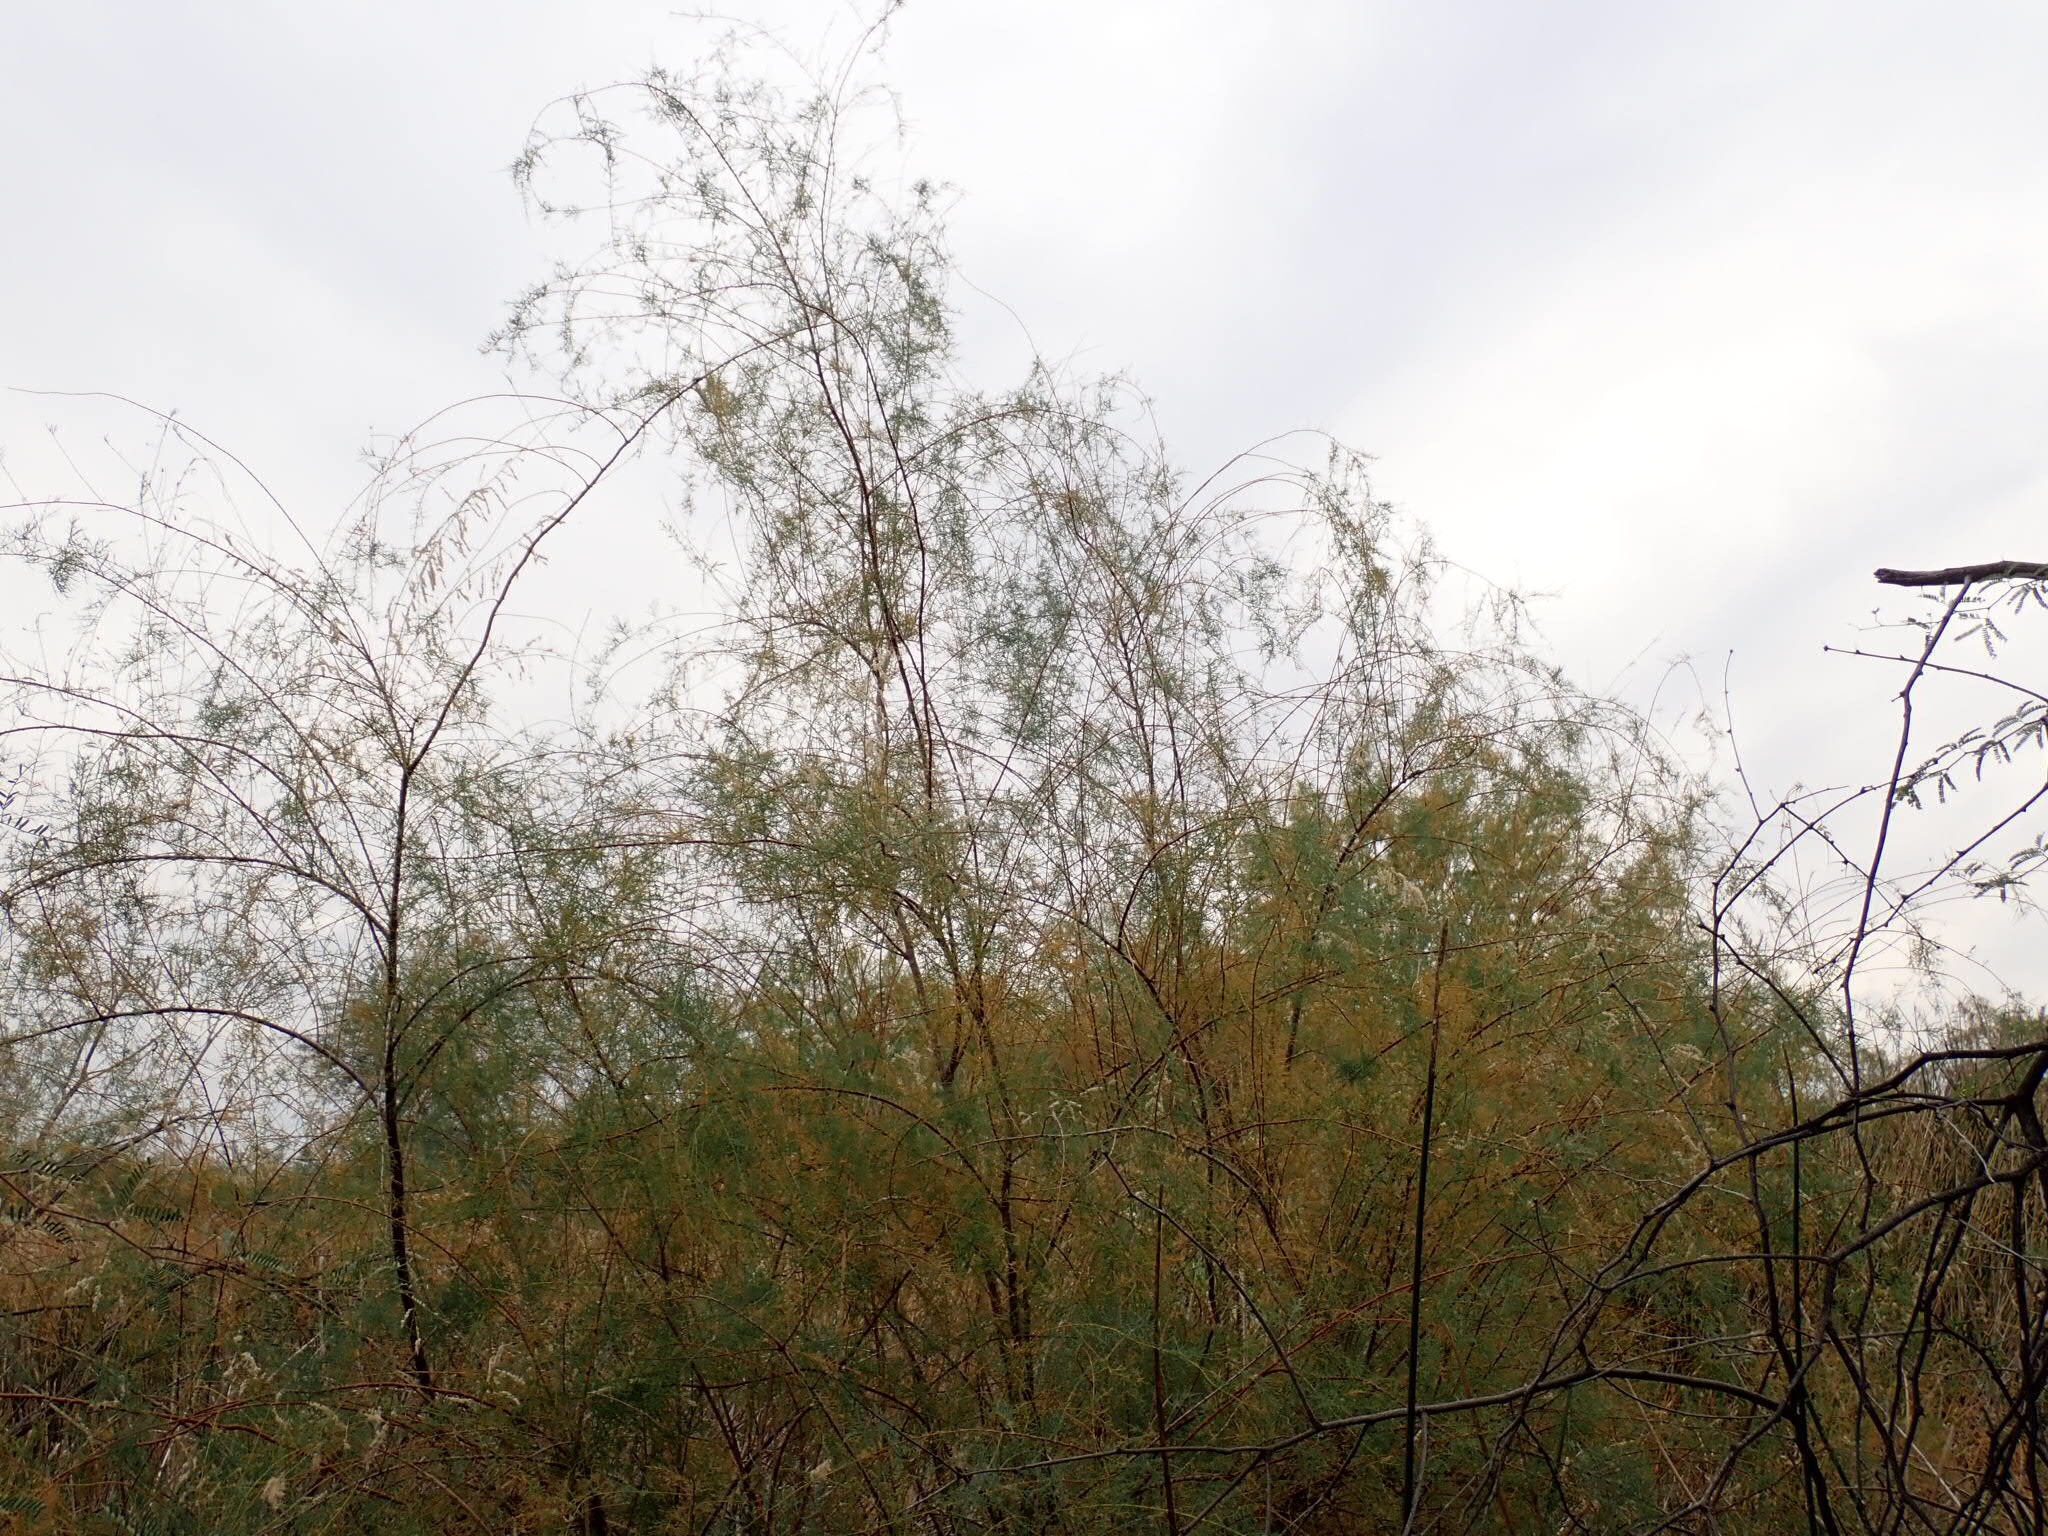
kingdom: Plantae
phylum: Tracheophyta
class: Magnoliopsida
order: Caryophyllales
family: Tamaricaceae
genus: Tamarix
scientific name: Tamarix
